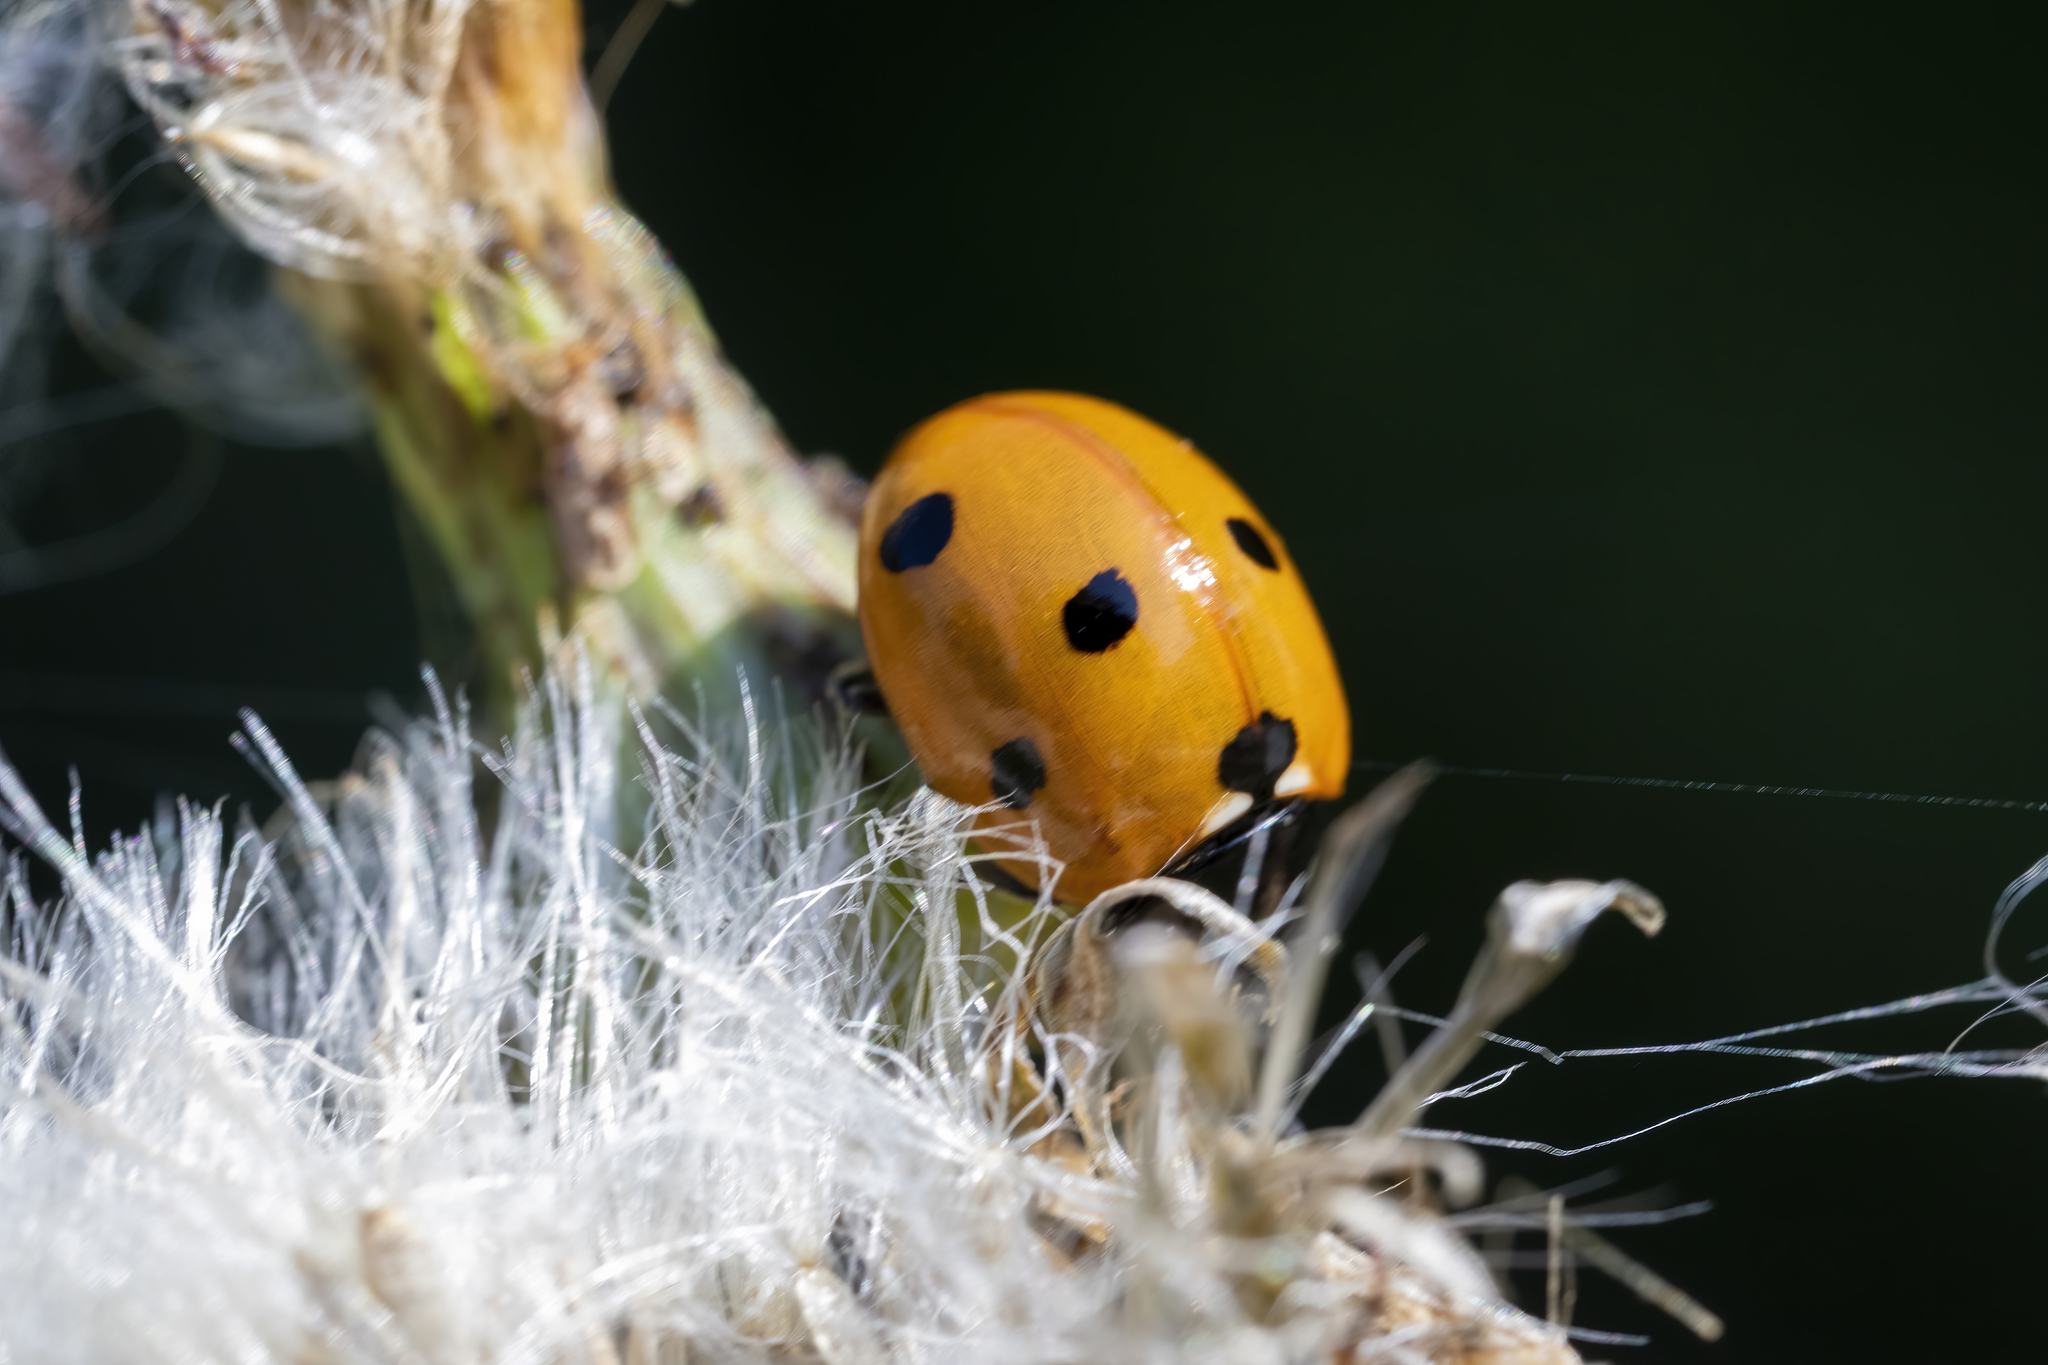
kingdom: Animalia
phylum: Arthropoda
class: Insecta
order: Coleoptera
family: Coccinellidae
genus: Coccinella
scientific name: Coccinella septempunctata
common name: Sevenspotted lady beetle
